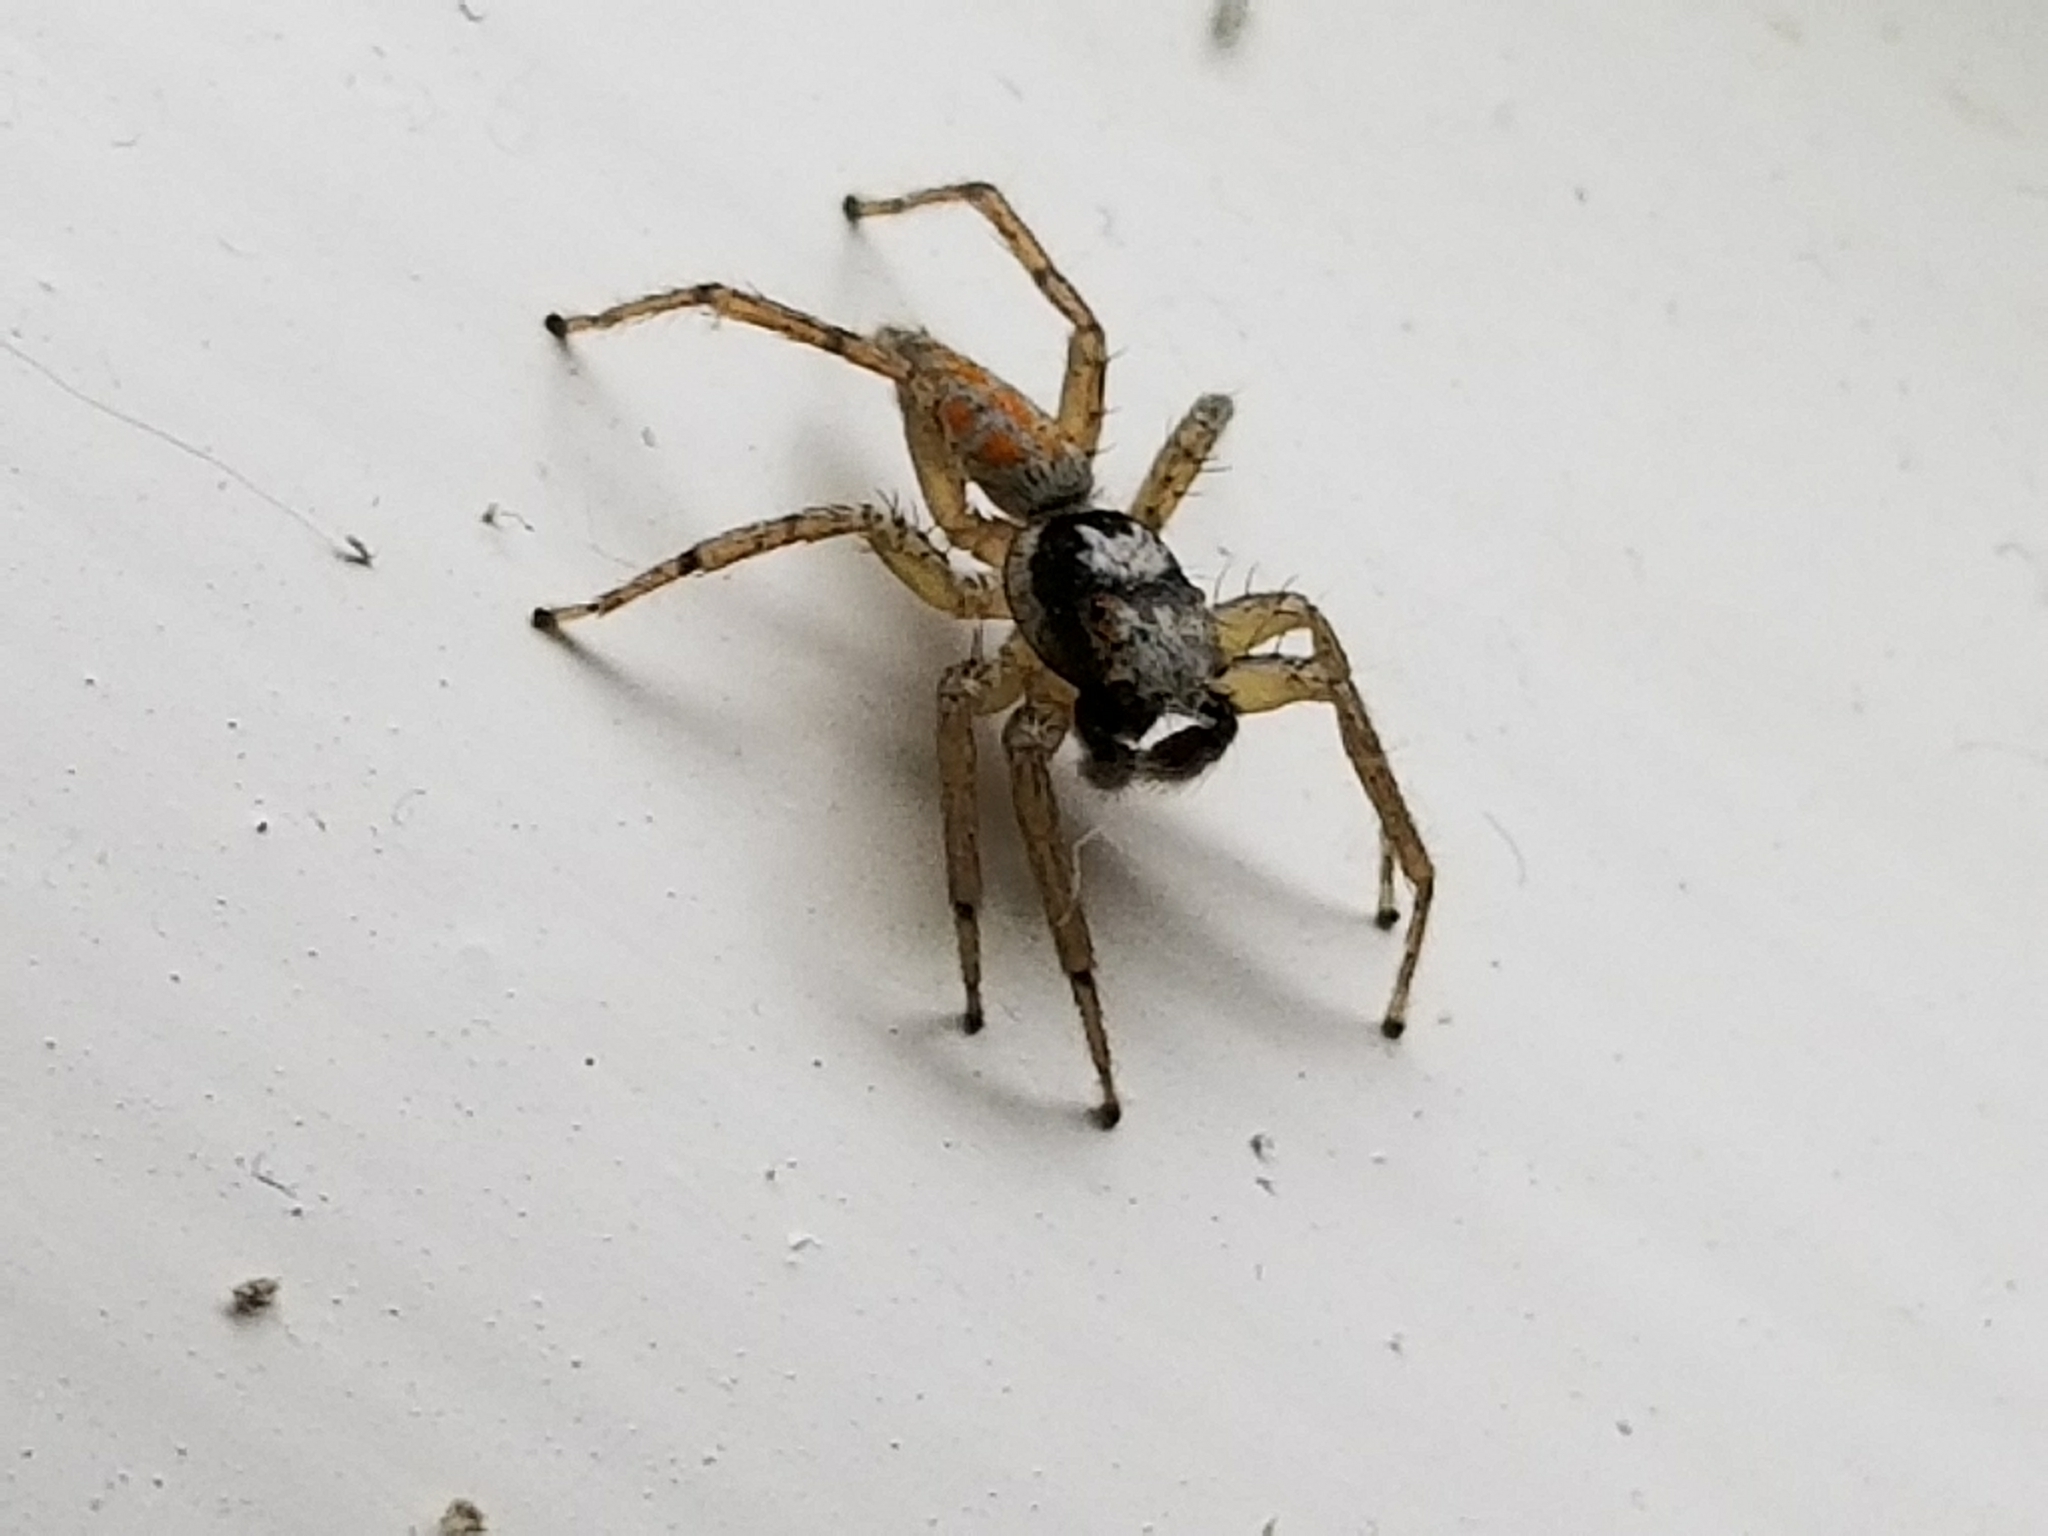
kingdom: Animalia
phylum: Arthropoda
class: Arachnida
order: Araneae
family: Salticidae
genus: Paramaevia
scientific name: Paramaevia poultoni
